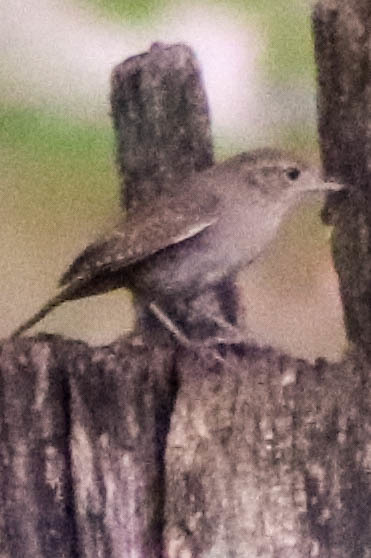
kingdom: Animalia
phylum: Chordata
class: Aves
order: Passeriformes
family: Troglodytidae
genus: Troglodytes
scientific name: Troglodytes aedon
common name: House wren
